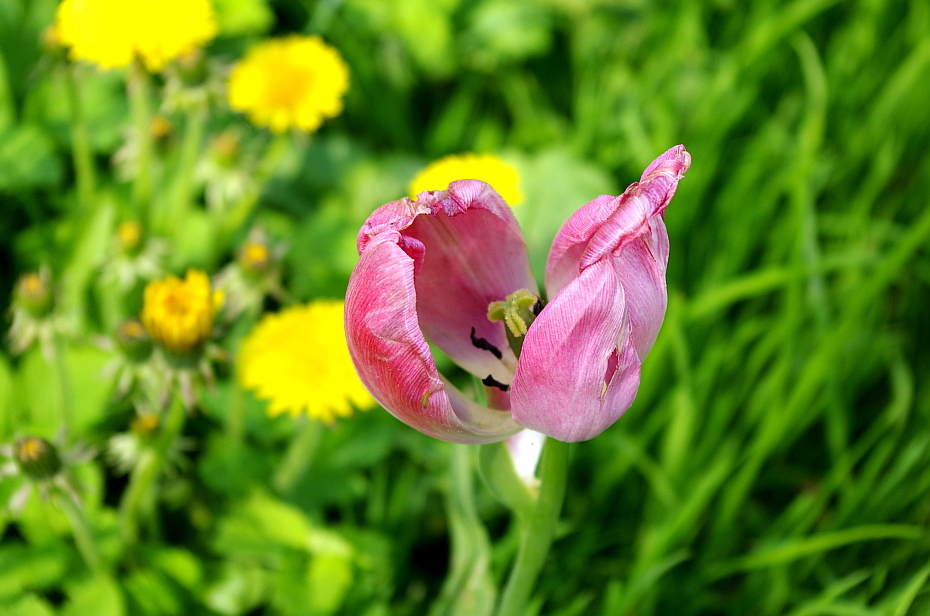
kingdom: Plantae
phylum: Tracheophyta
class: Liliopsida
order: Liliales
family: Liliaceae
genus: Tulipa
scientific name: Tulipa gesneriana
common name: Garden tulip
